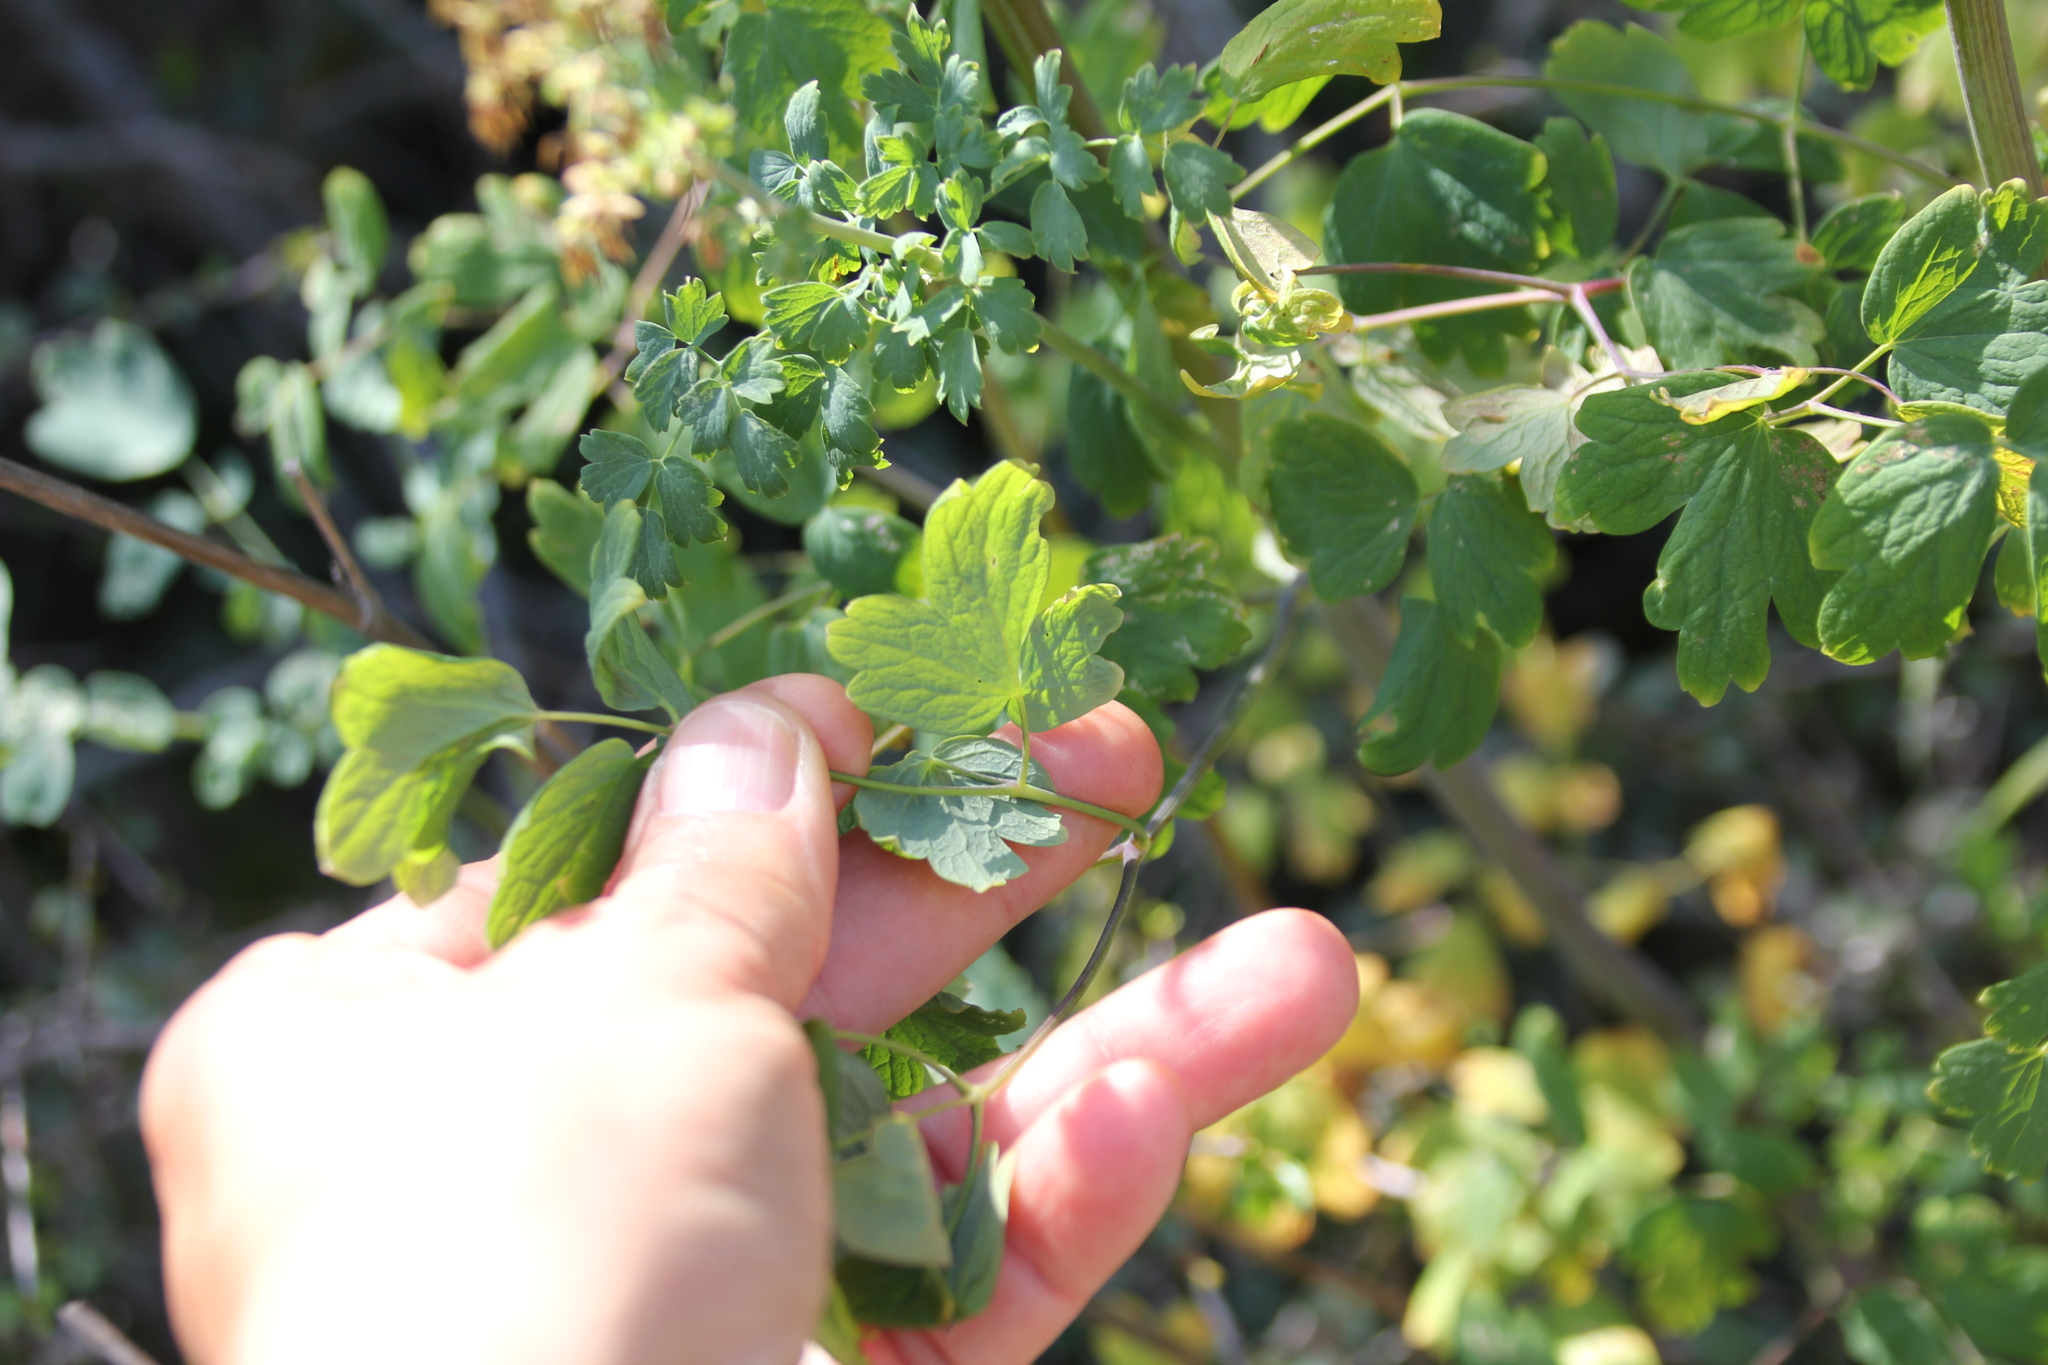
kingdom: Plantae
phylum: Tracheophyta
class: Magnoliopsida
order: Ranunculales
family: Ranunculaceae
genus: Thalictrum
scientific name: Thalictrum fendleri
